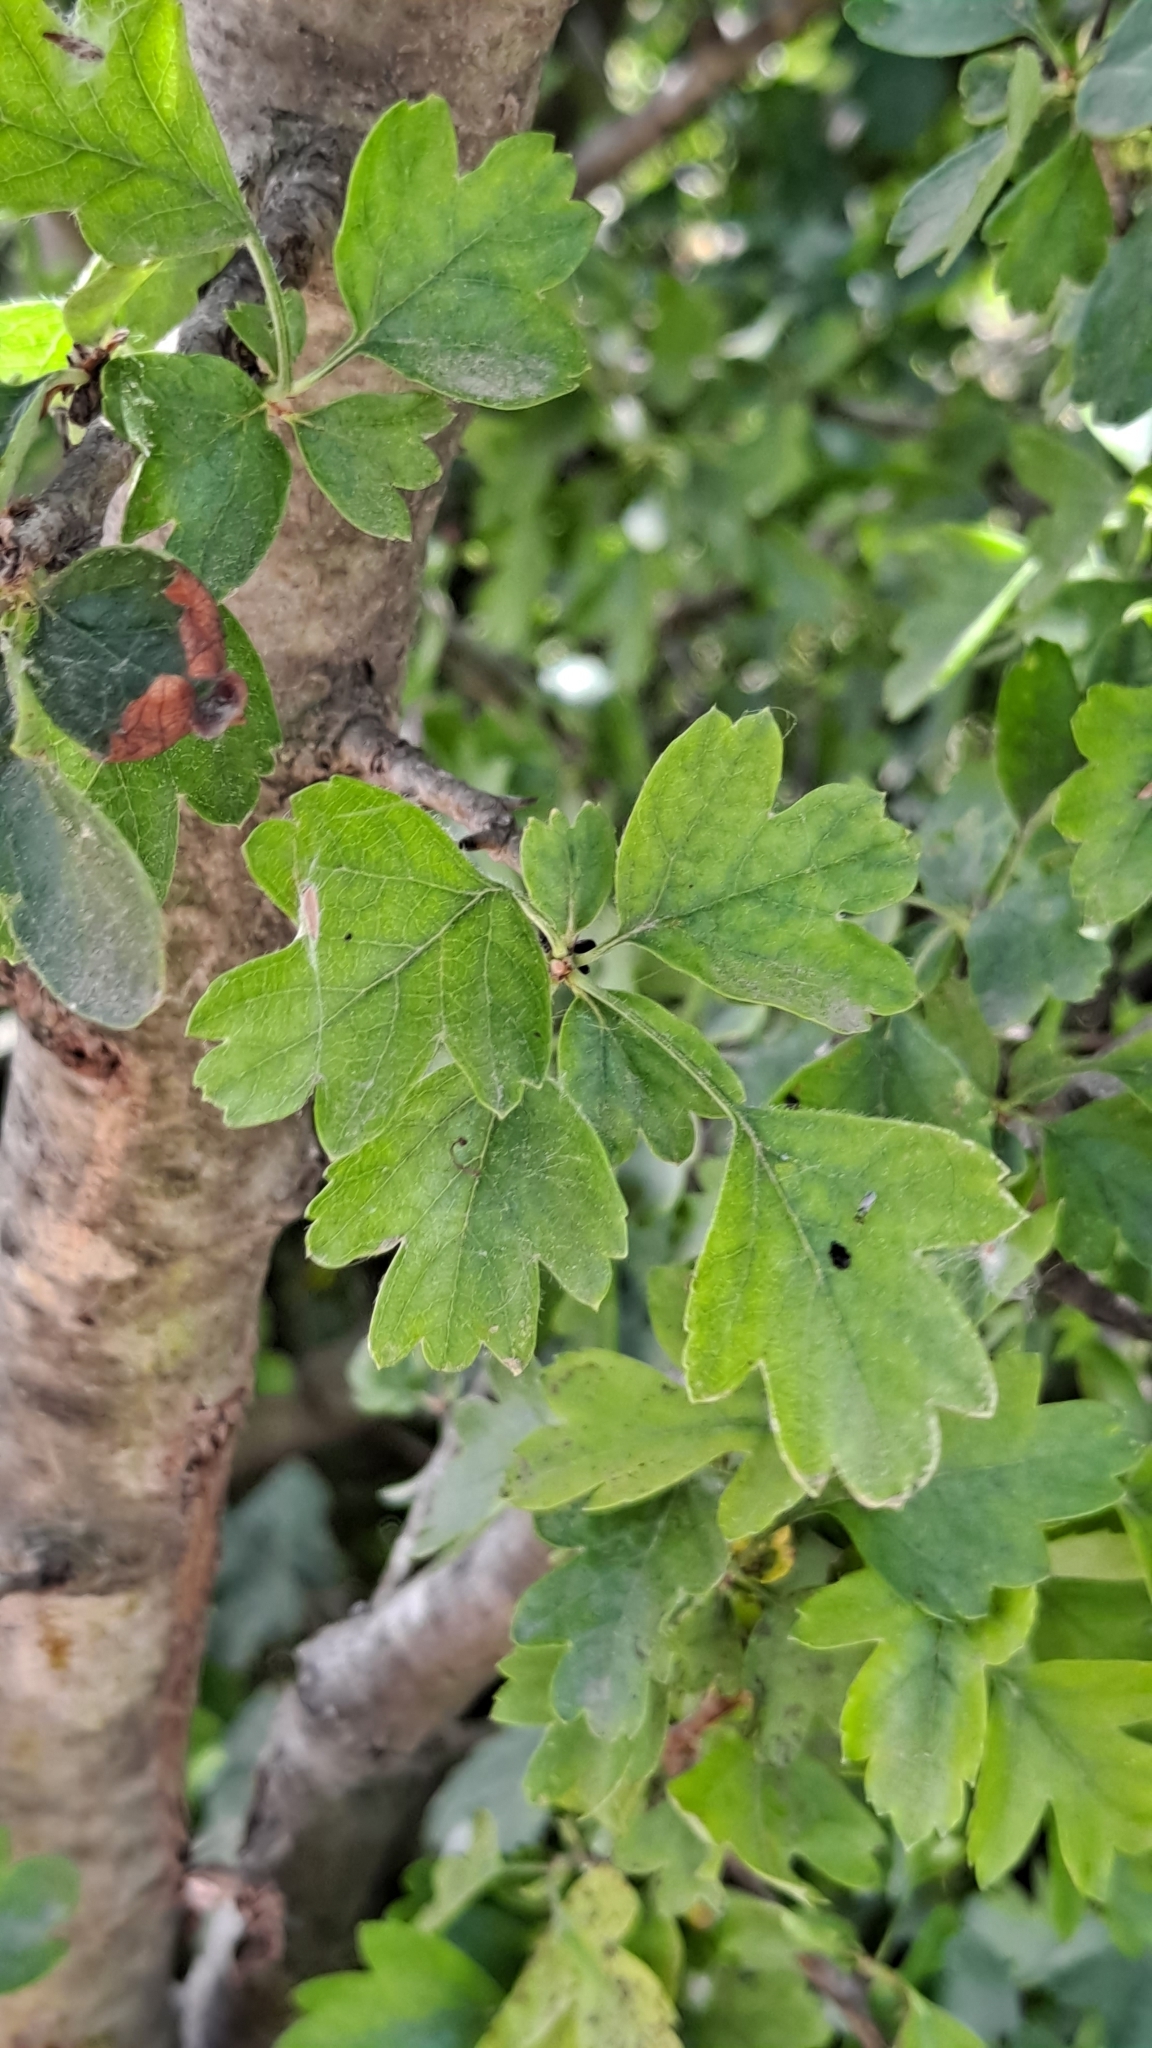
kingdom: Plantae
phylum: Tracheophyta
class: Magnoliopsida
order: Rosales
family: Rosaceae
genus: Crataegus
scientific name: Crataegus monogyna
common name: Hawthorn
